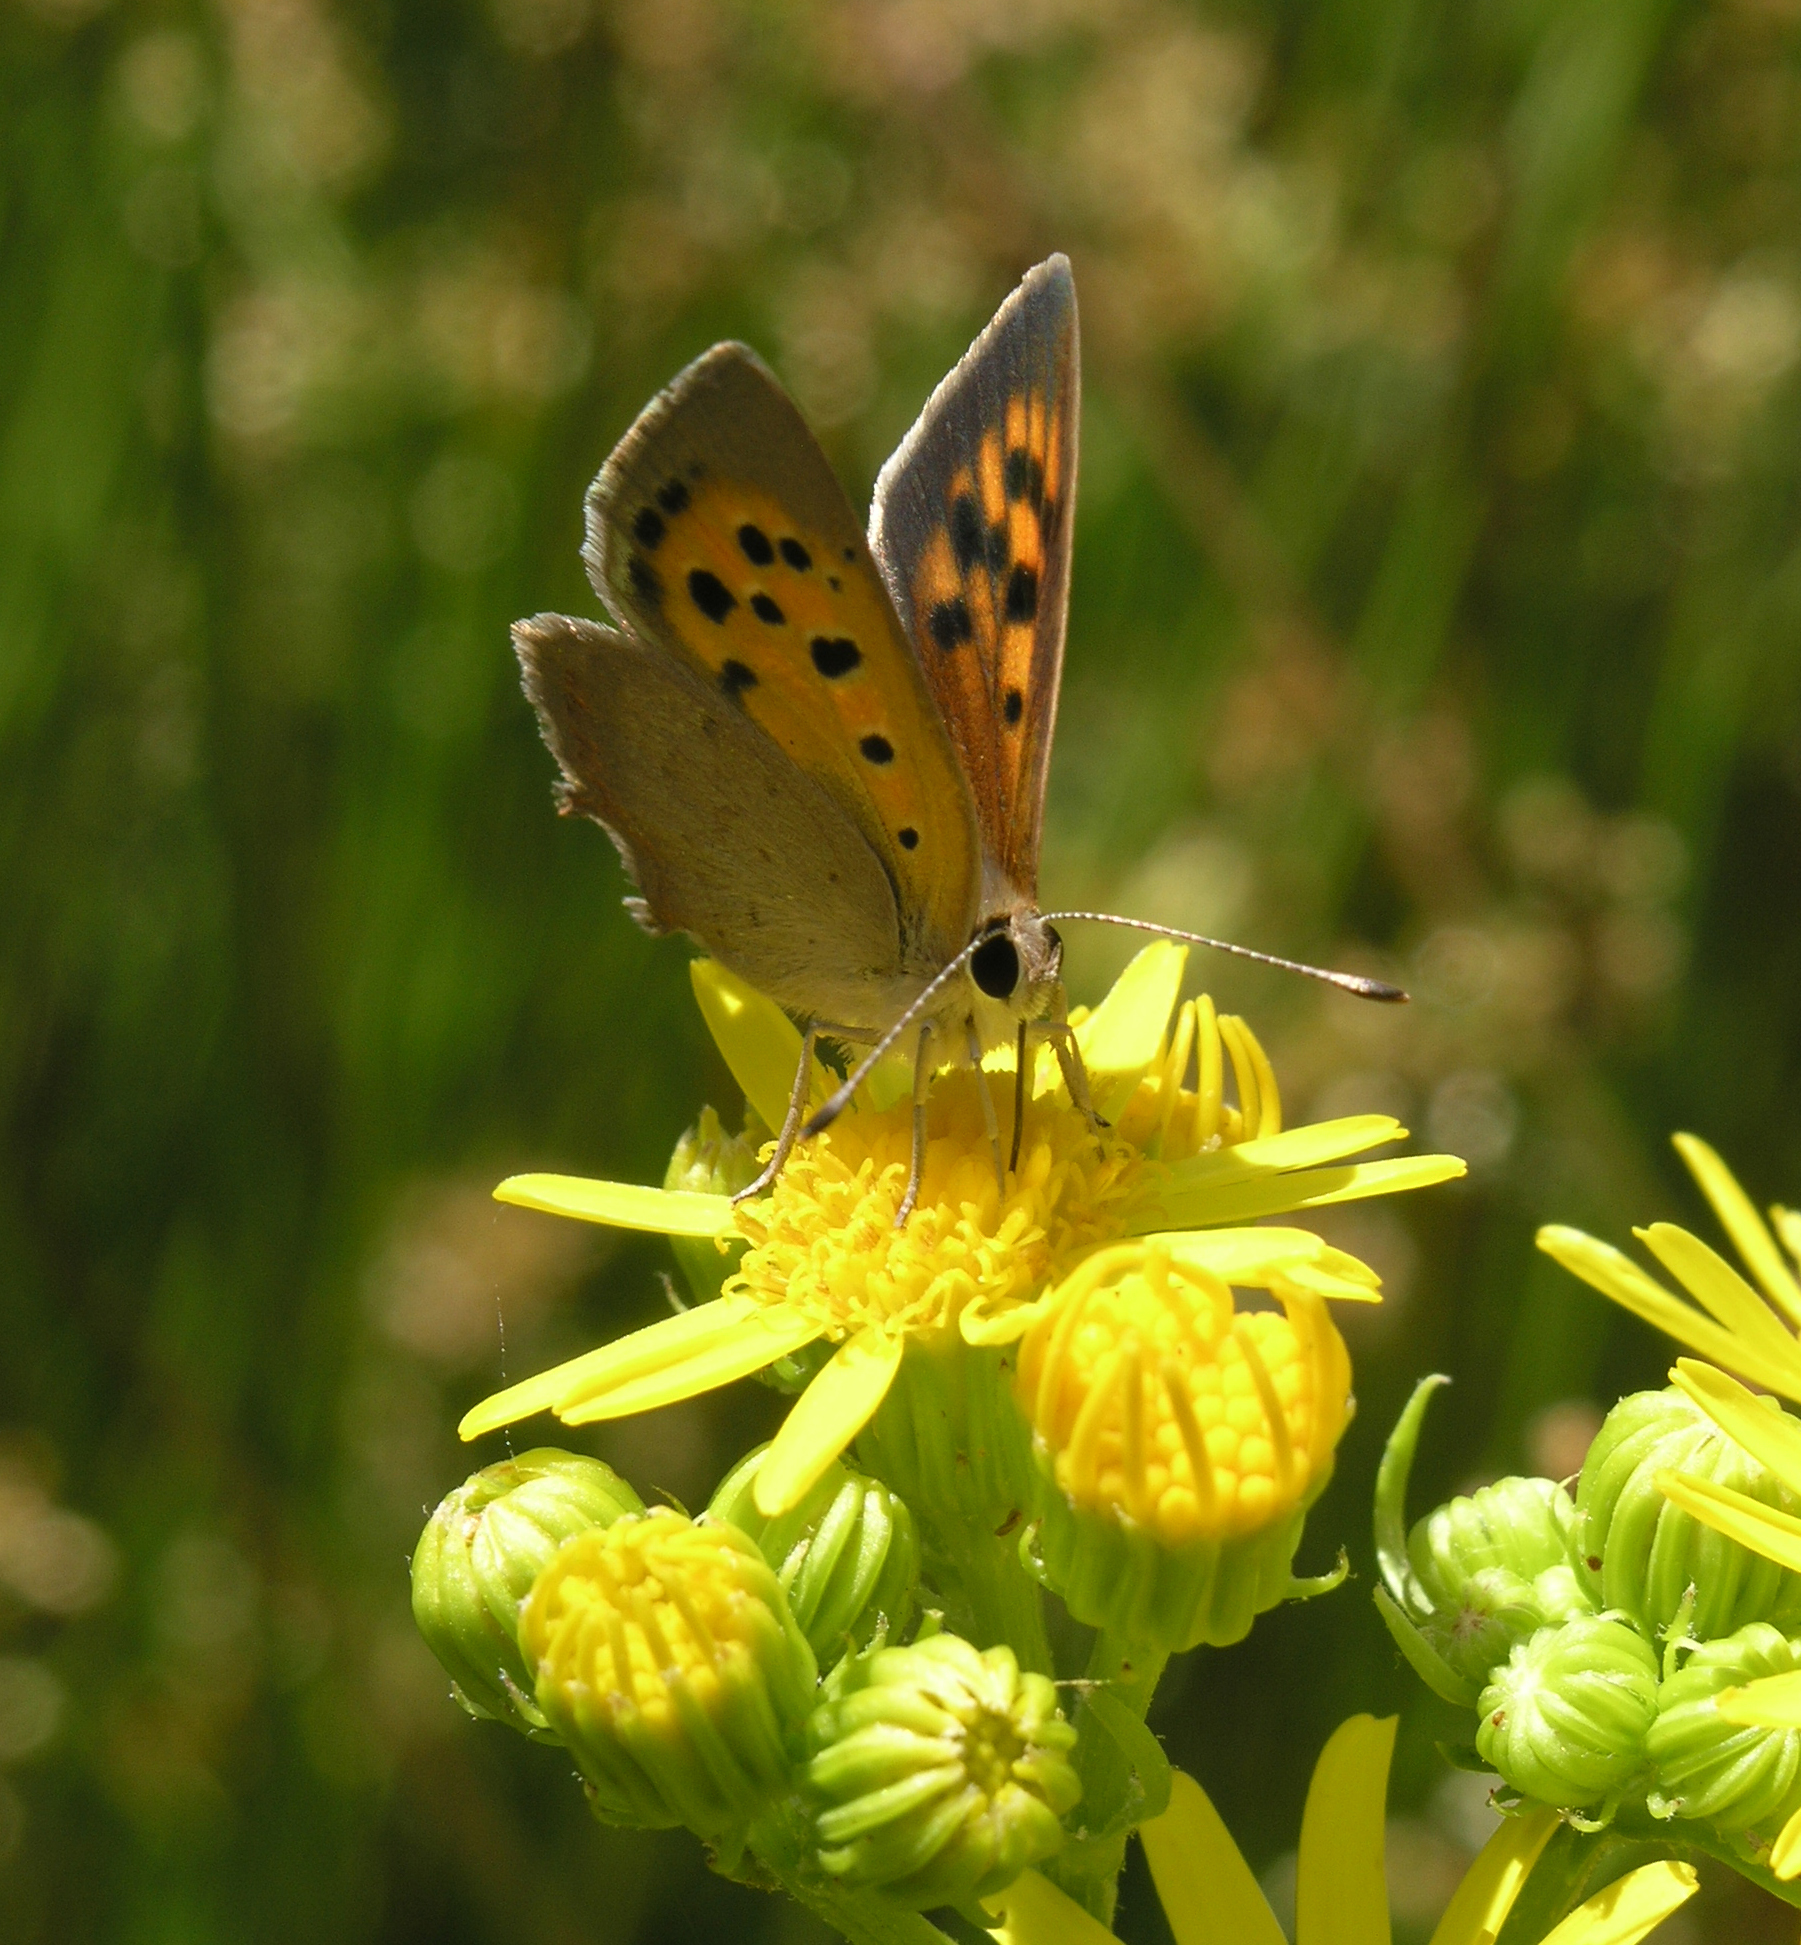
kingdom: Animalia
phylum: Arthropoda
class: Insecta
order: Lepidoptera
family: Lycaenidae
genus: Lycaena
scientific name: Lycaena phlaeas
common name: Small copper
